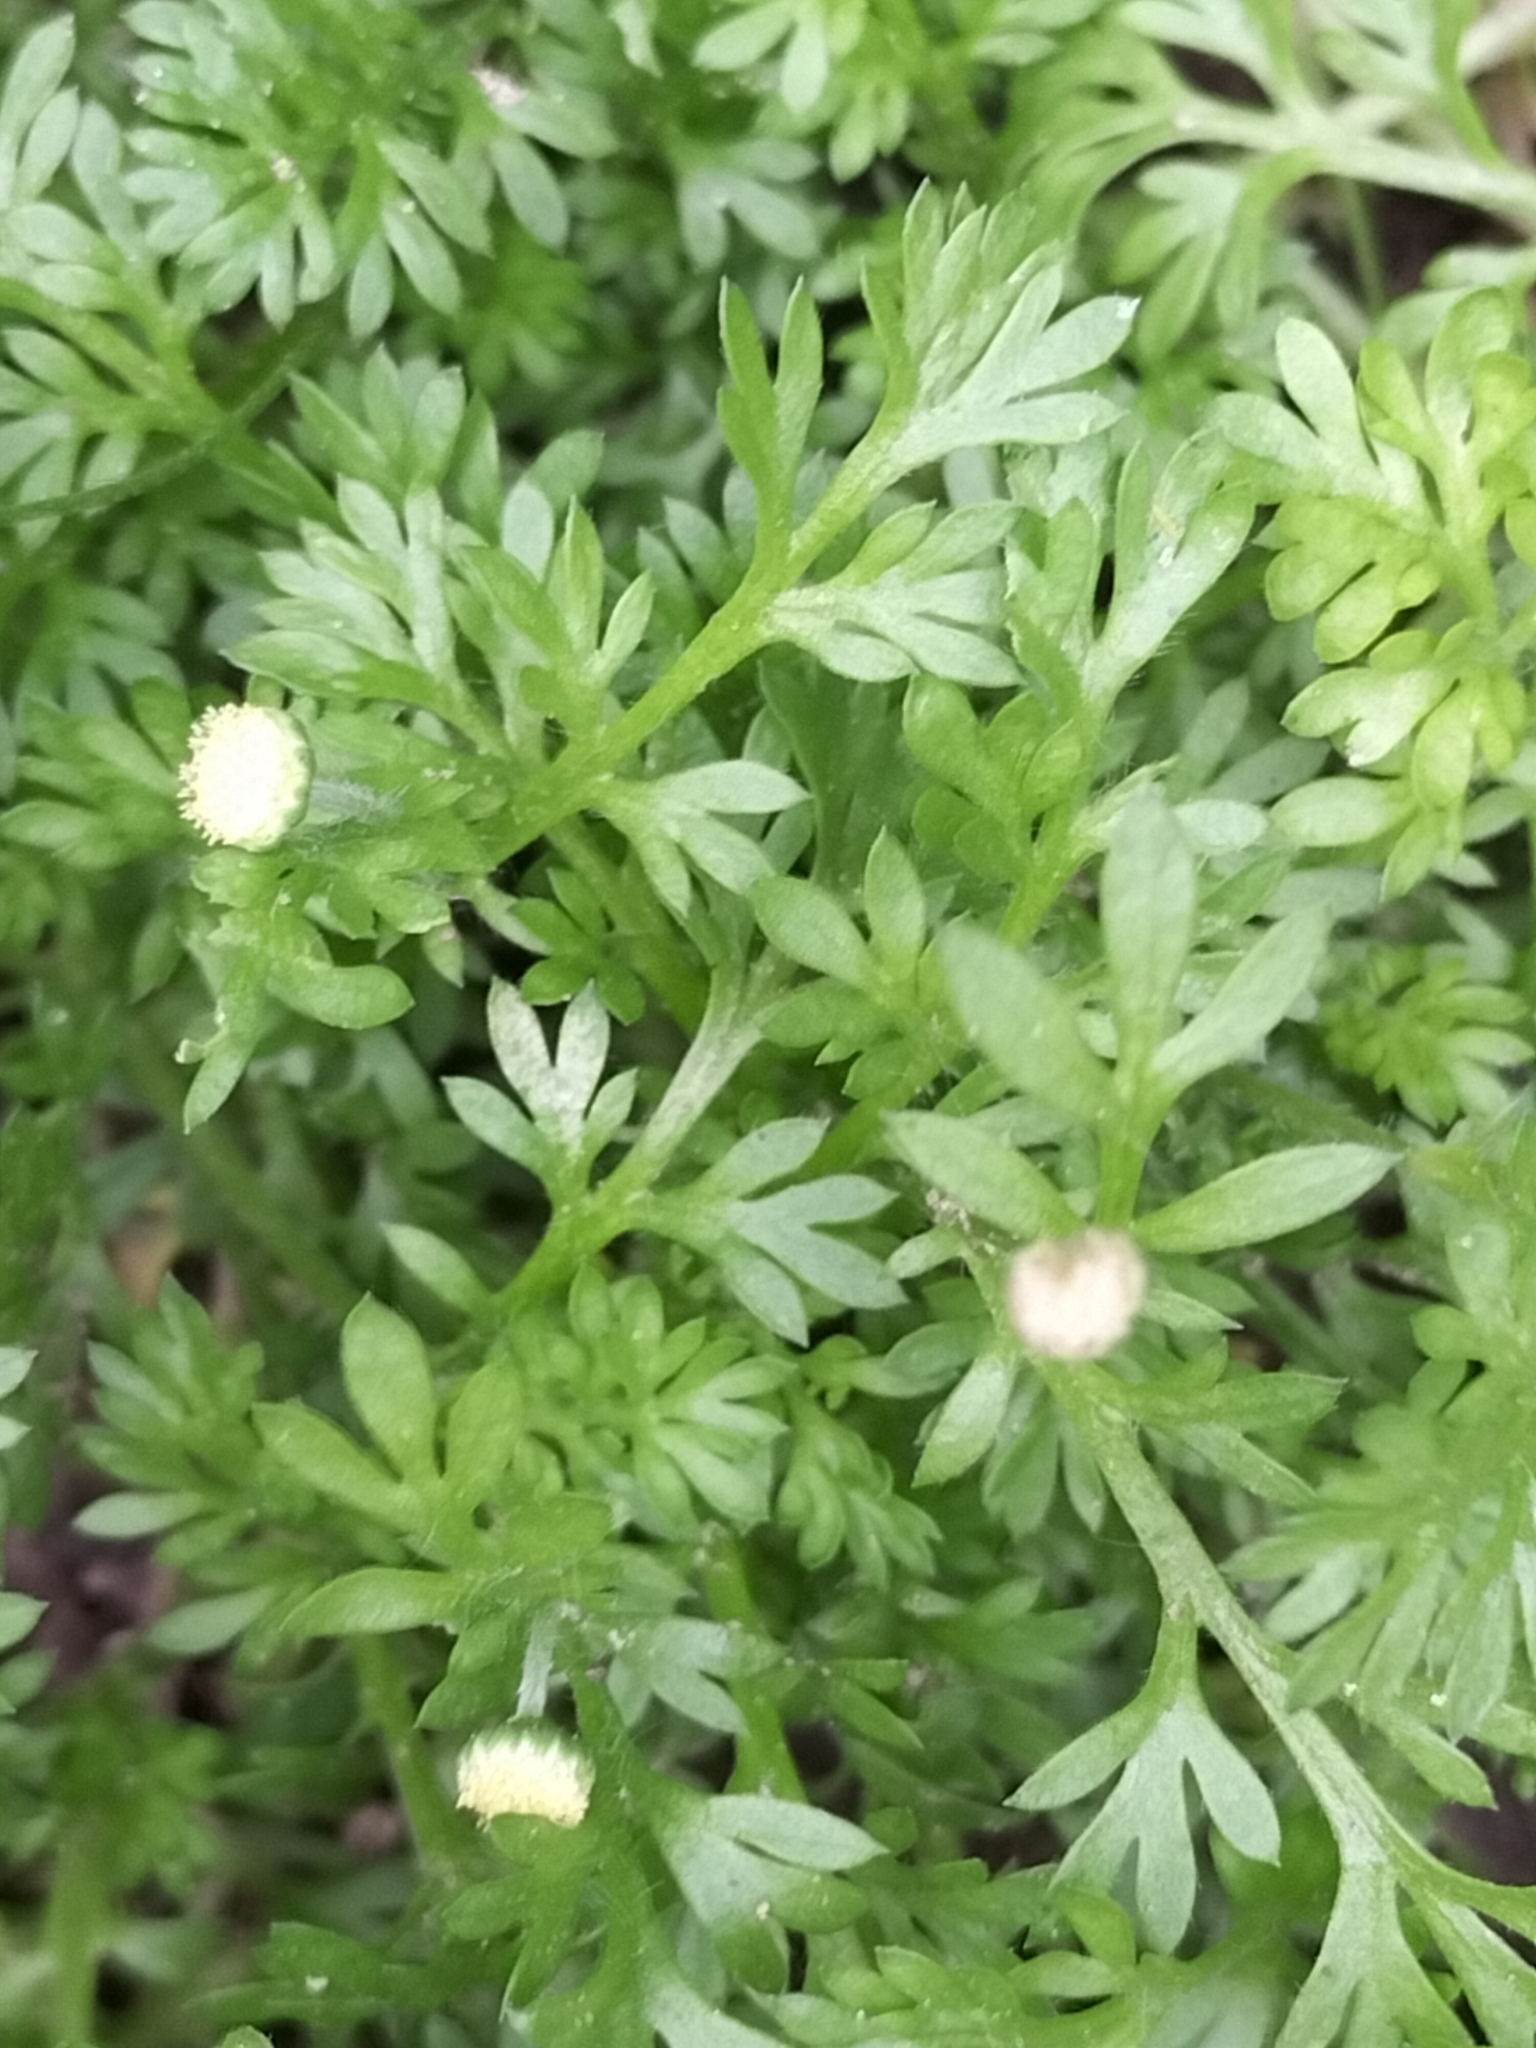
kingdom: Plantae
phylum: Tracheophyta
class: Magnoliopsida
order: Asterales
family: Asteraceae
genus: Cotula
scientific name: Cotula australis
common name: Australian waterbuttons
